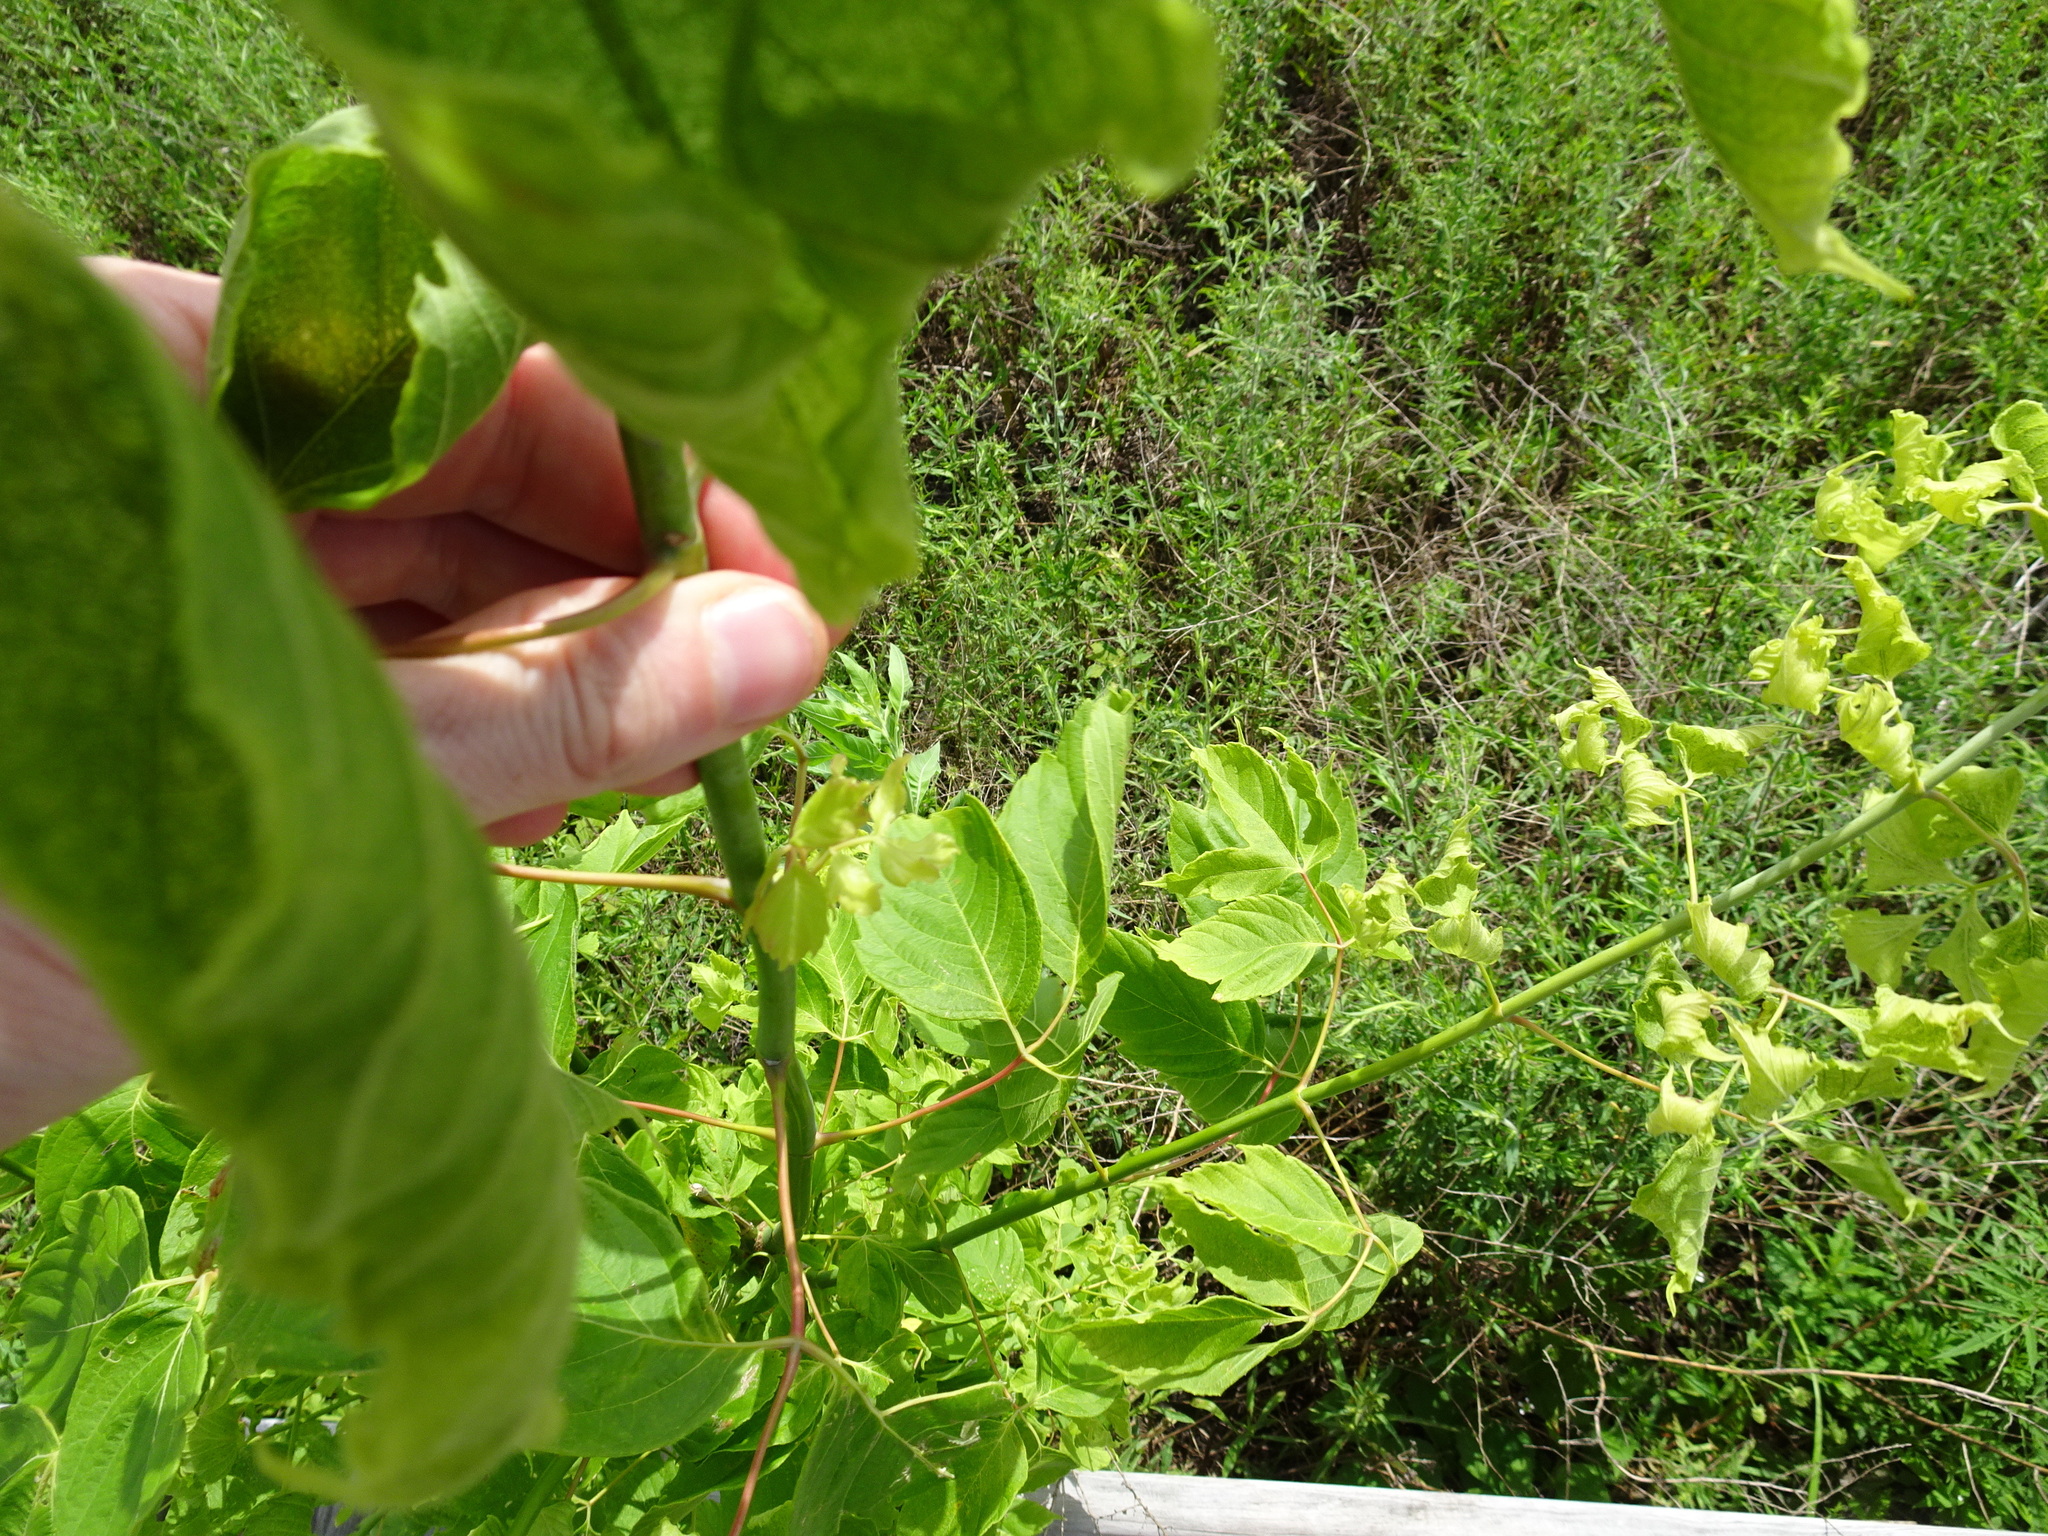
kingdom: Plantae
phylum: Tracheophyta
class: Magnoliopsida
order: Sapindales
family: Sapindaceae
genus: Acer
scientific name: Acer negundo
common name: Ashleaf maple
